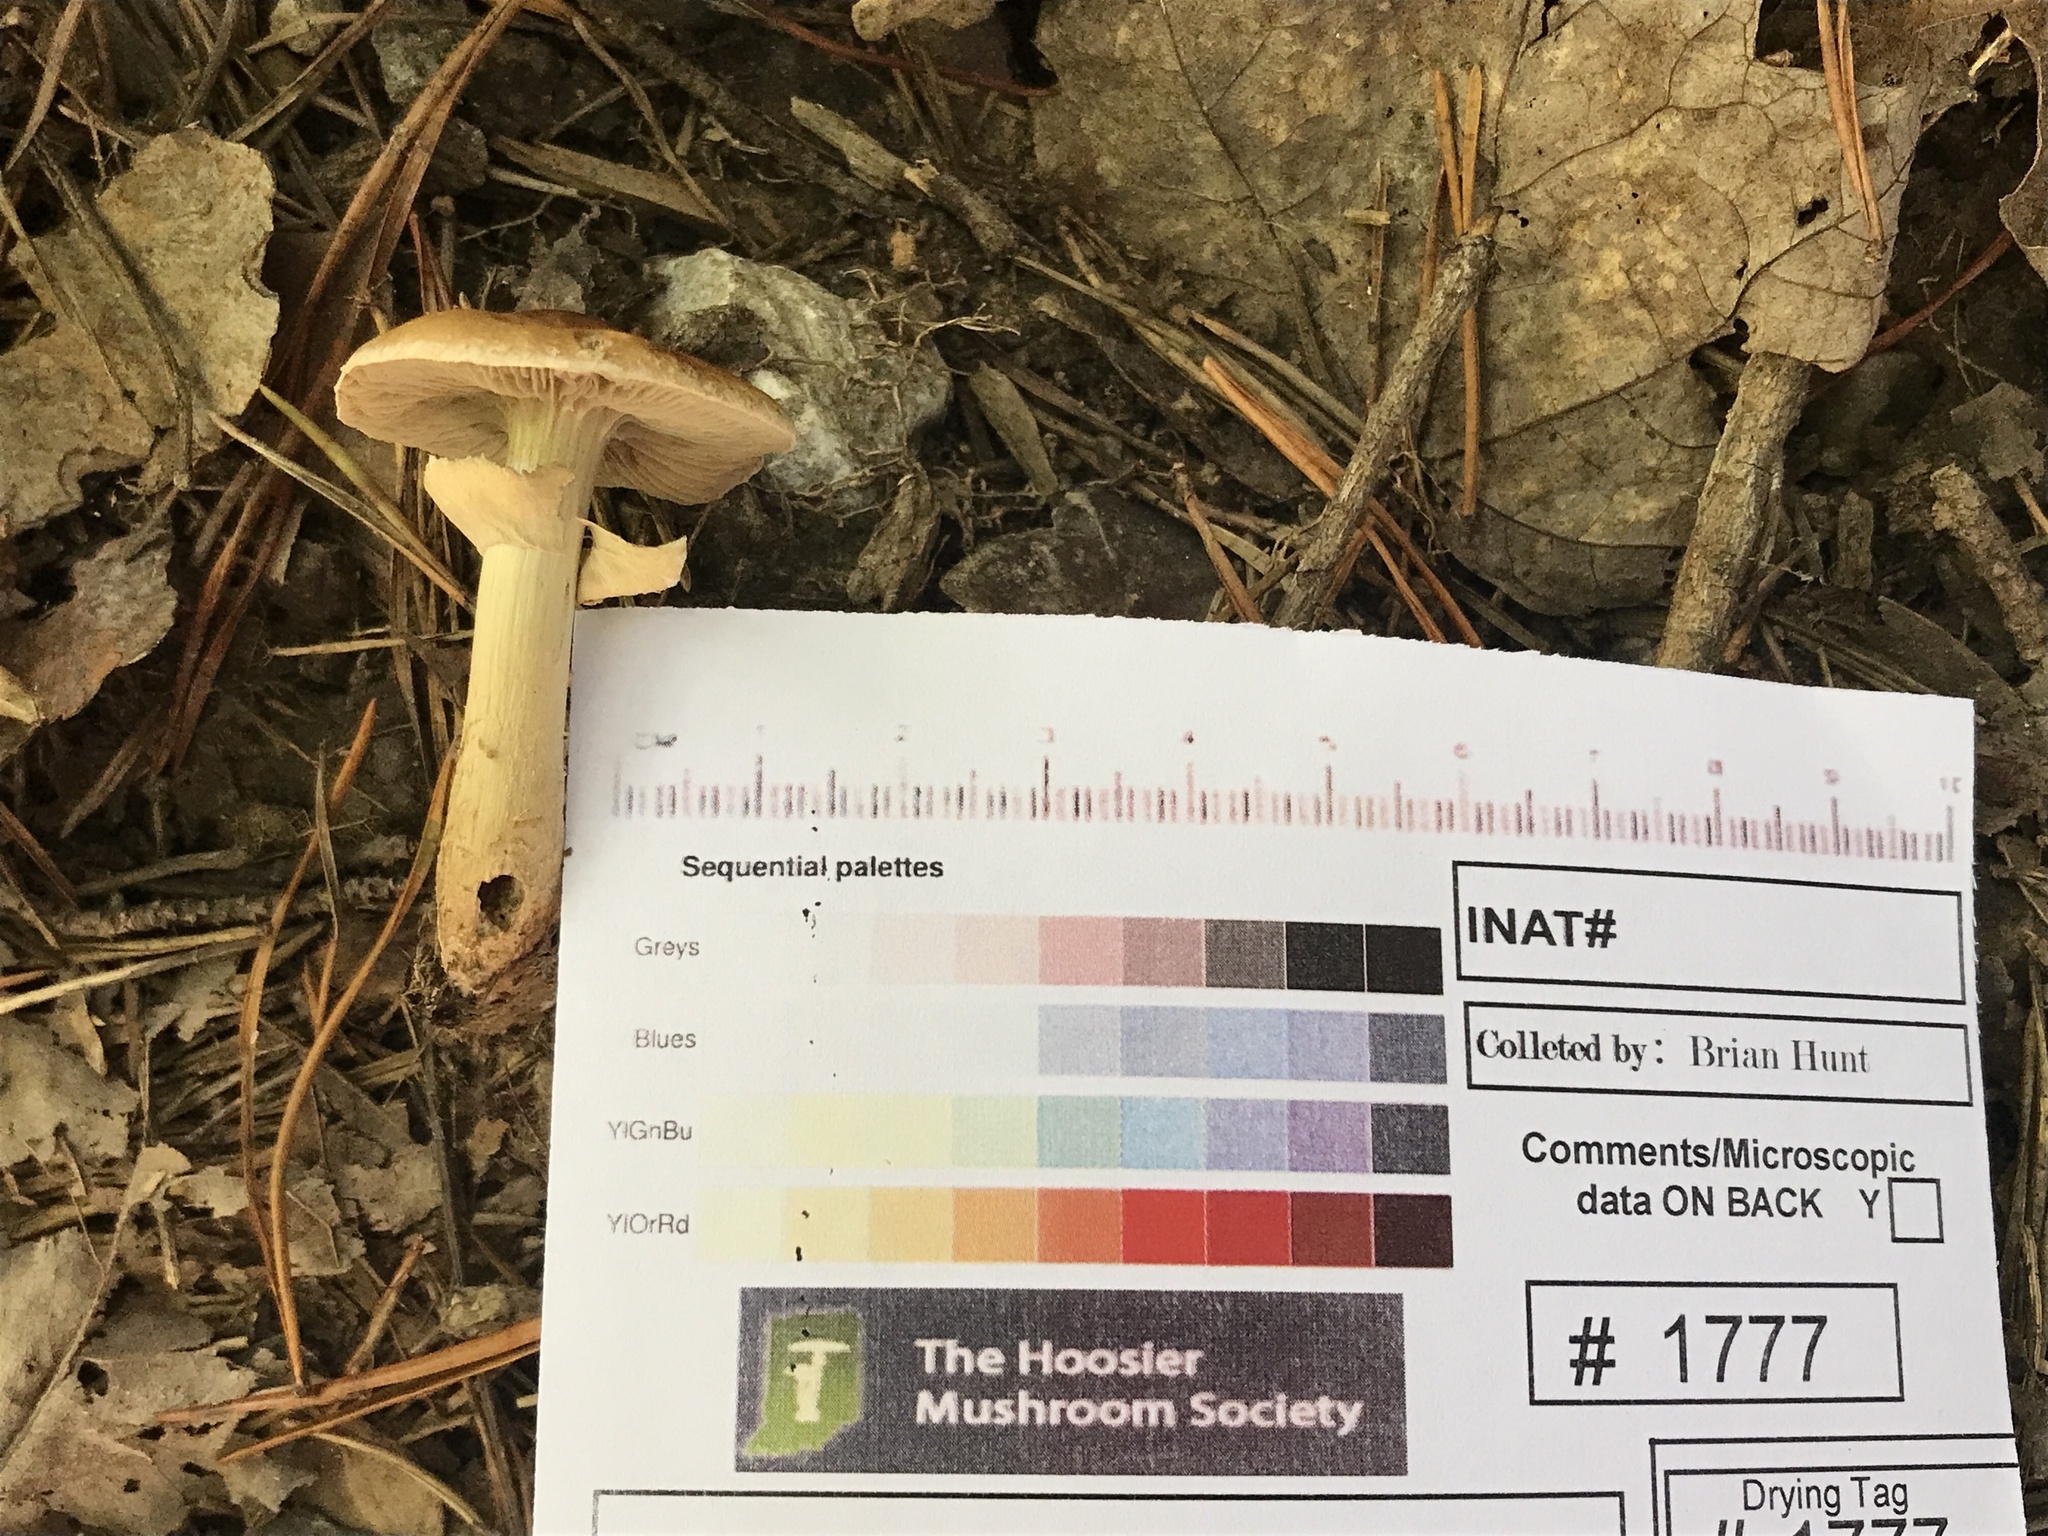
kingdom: Fungi
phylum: Basidiomycota
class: Agaricomycetes
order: Agaricales
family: Tubariaceae
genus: Cyclocybe
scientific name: Cyclocybe erebia
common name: Dark fieldcap
